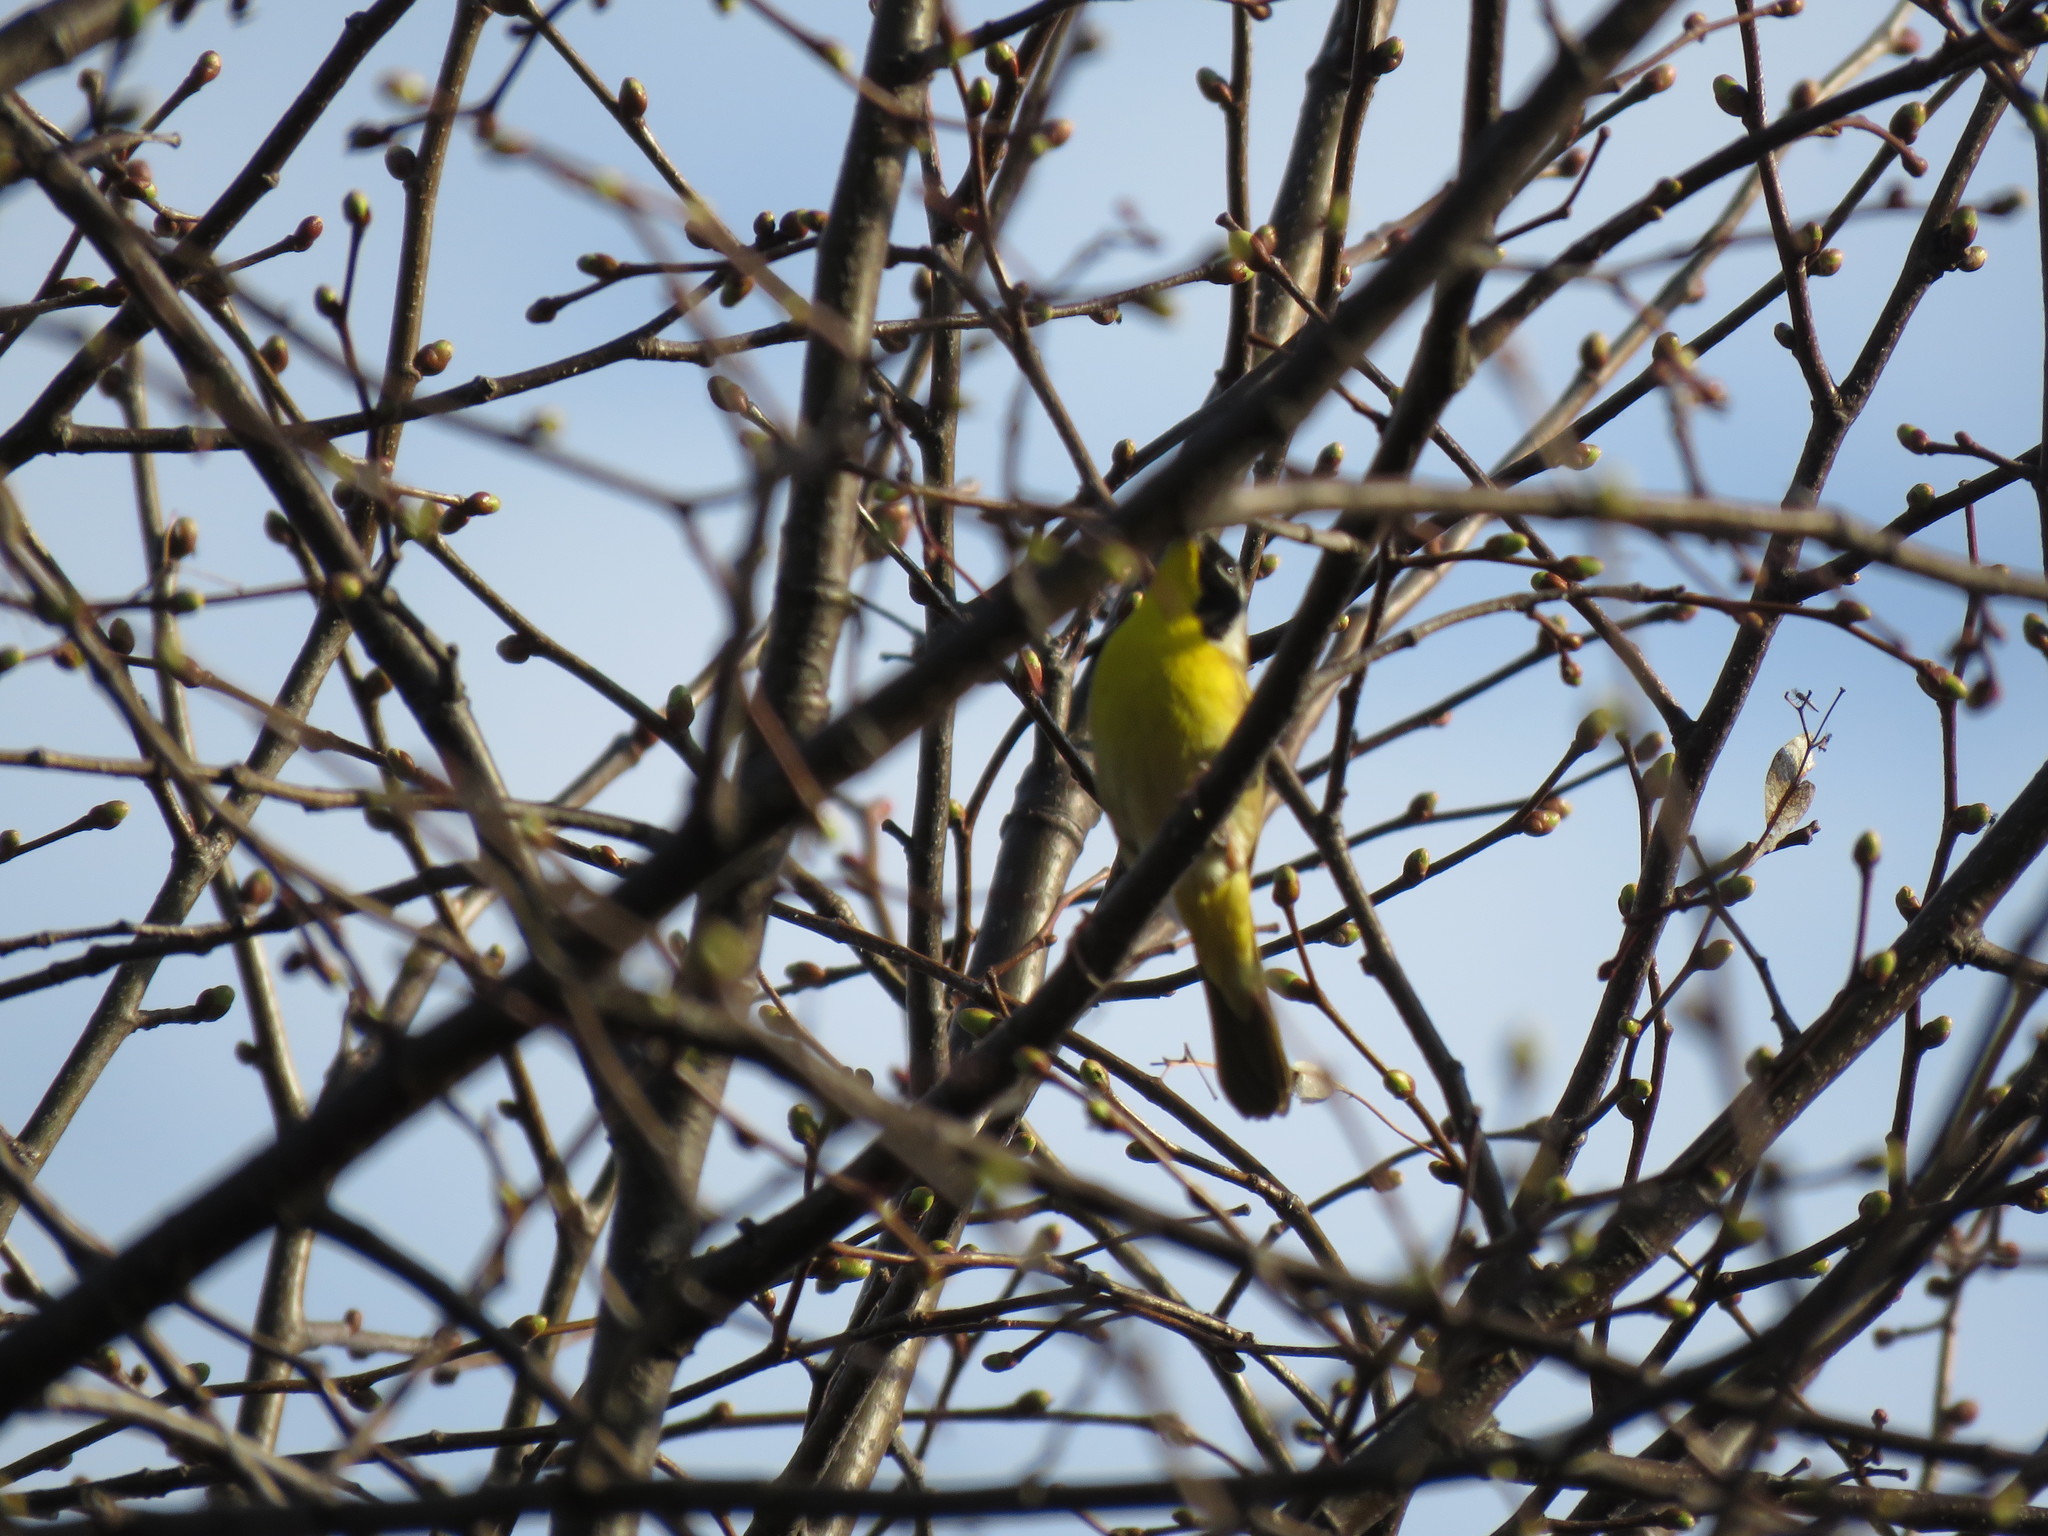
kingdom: Animalia
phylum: Chordata
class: Aves
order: Passeriformes
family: Parulidae
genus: Geothlypis
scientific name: Geothlypis trichas
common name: Common yellowthroat
